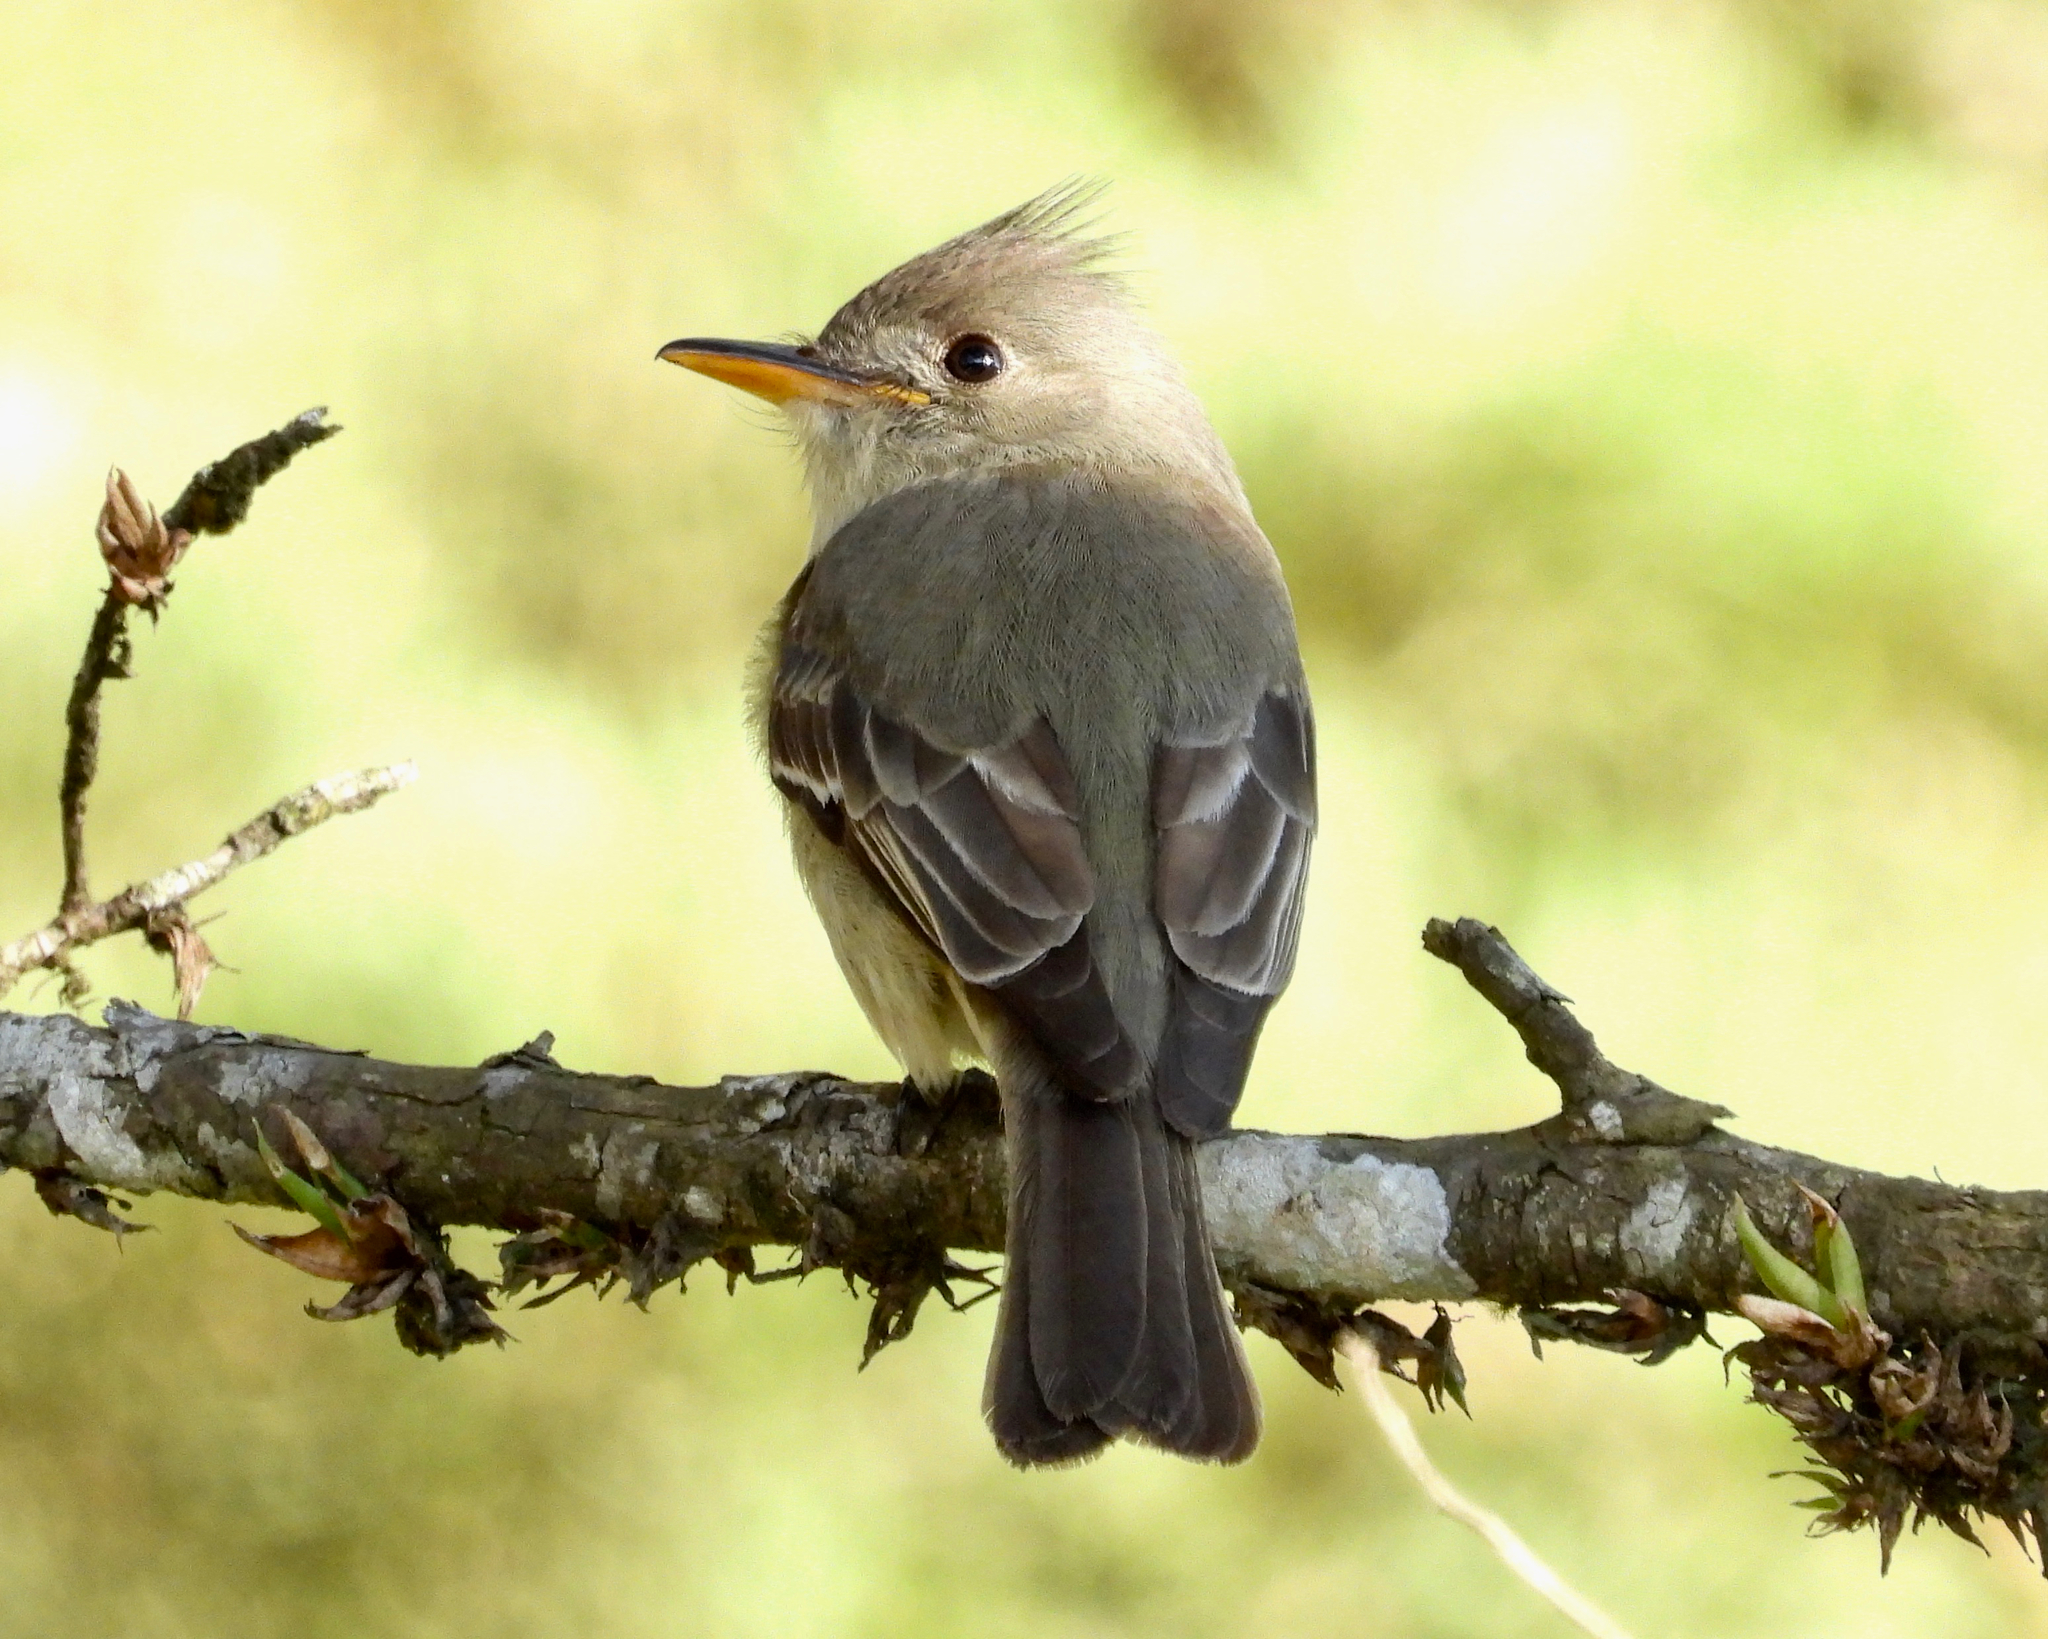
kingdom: Animalia
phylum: Chordata
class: Aves
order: Passeriformes
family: Tyrannidae
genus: Contopus
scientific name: Contopus pertinax
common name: Greater pewee
